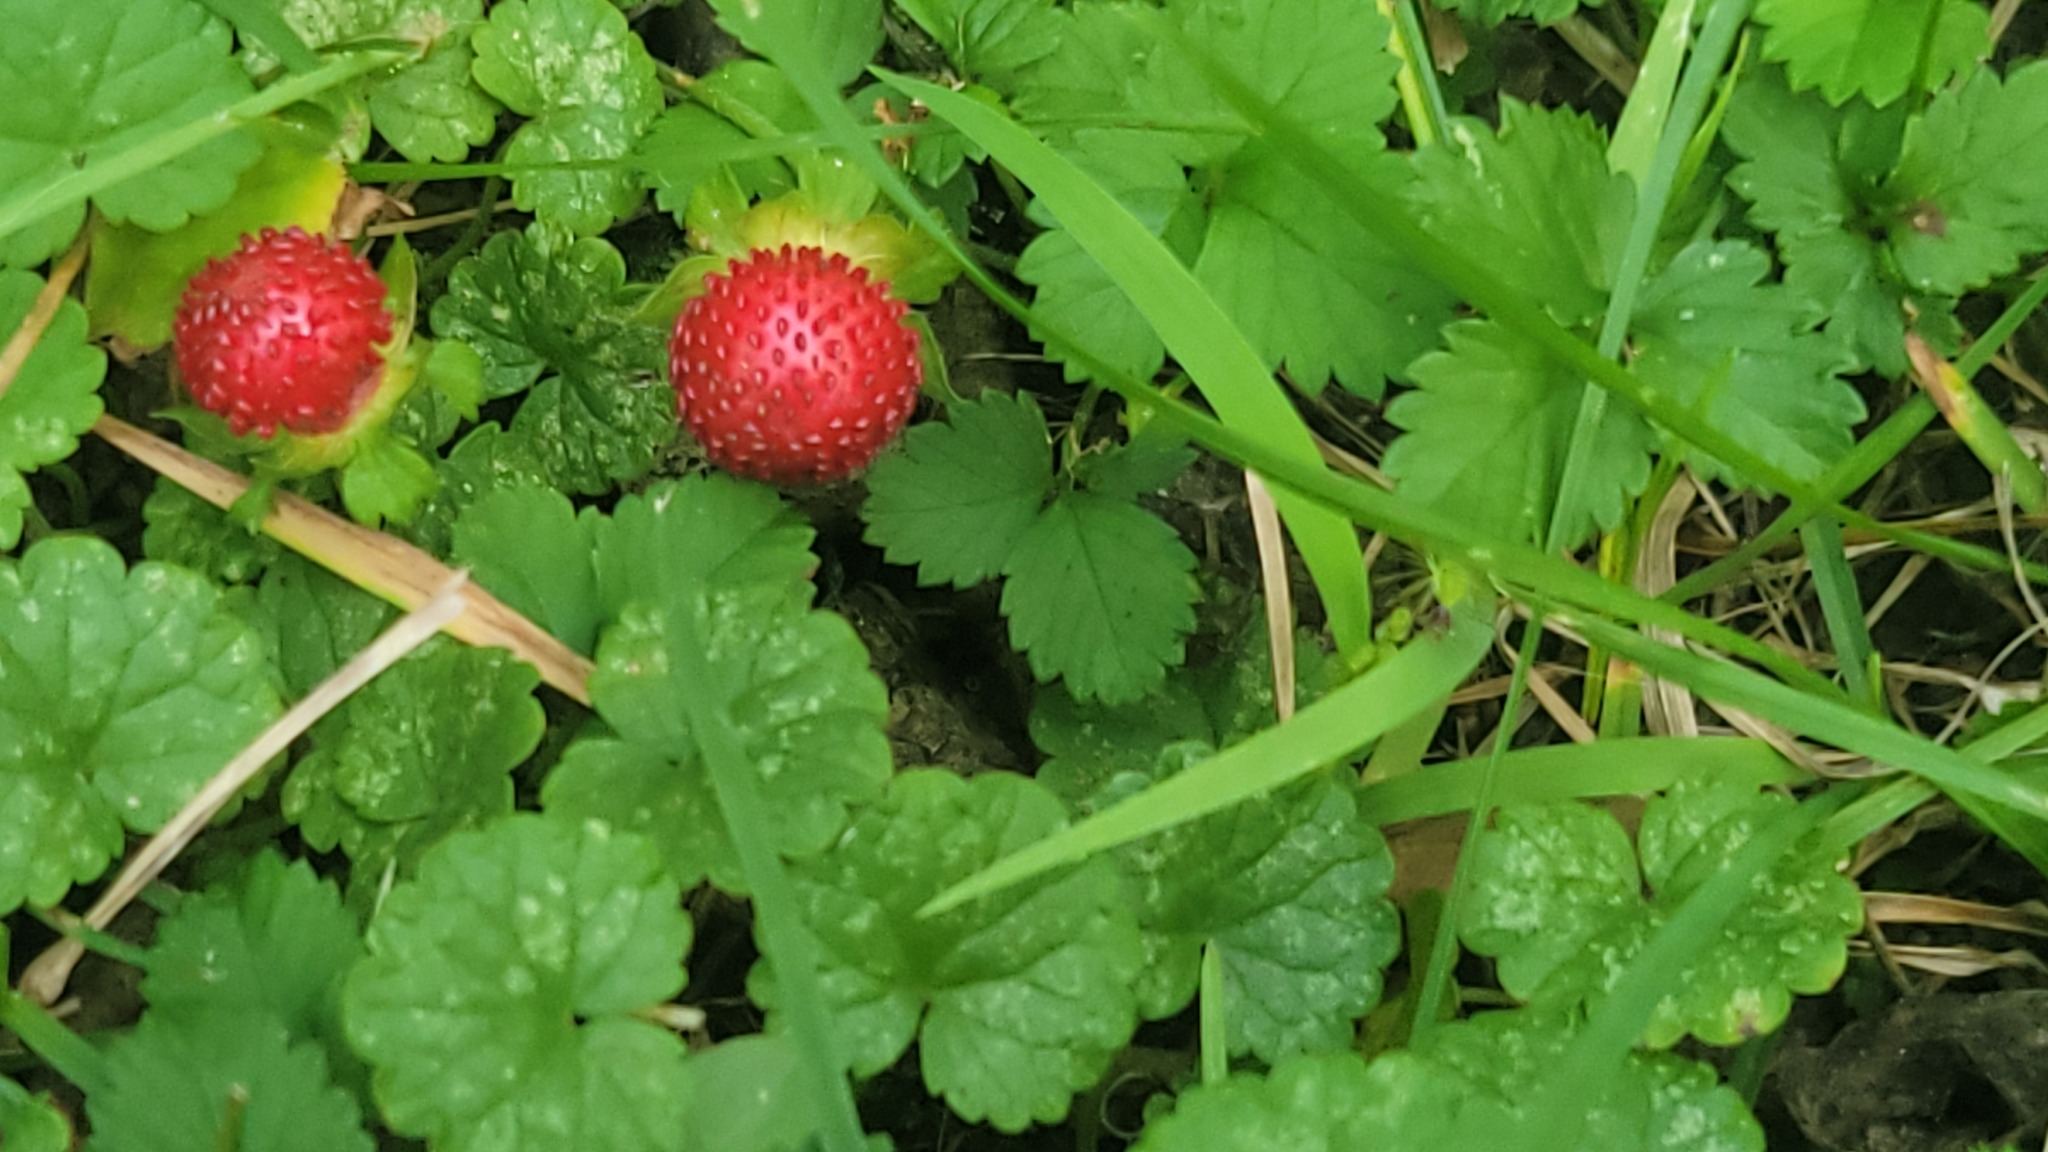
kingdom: Plantae
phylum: Tracheophyta
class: Magnoliopsida
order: Rosales
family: Rosaceae
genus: Potentilla
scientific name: Potentilla indica
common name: Yellow-flowered strawberry
